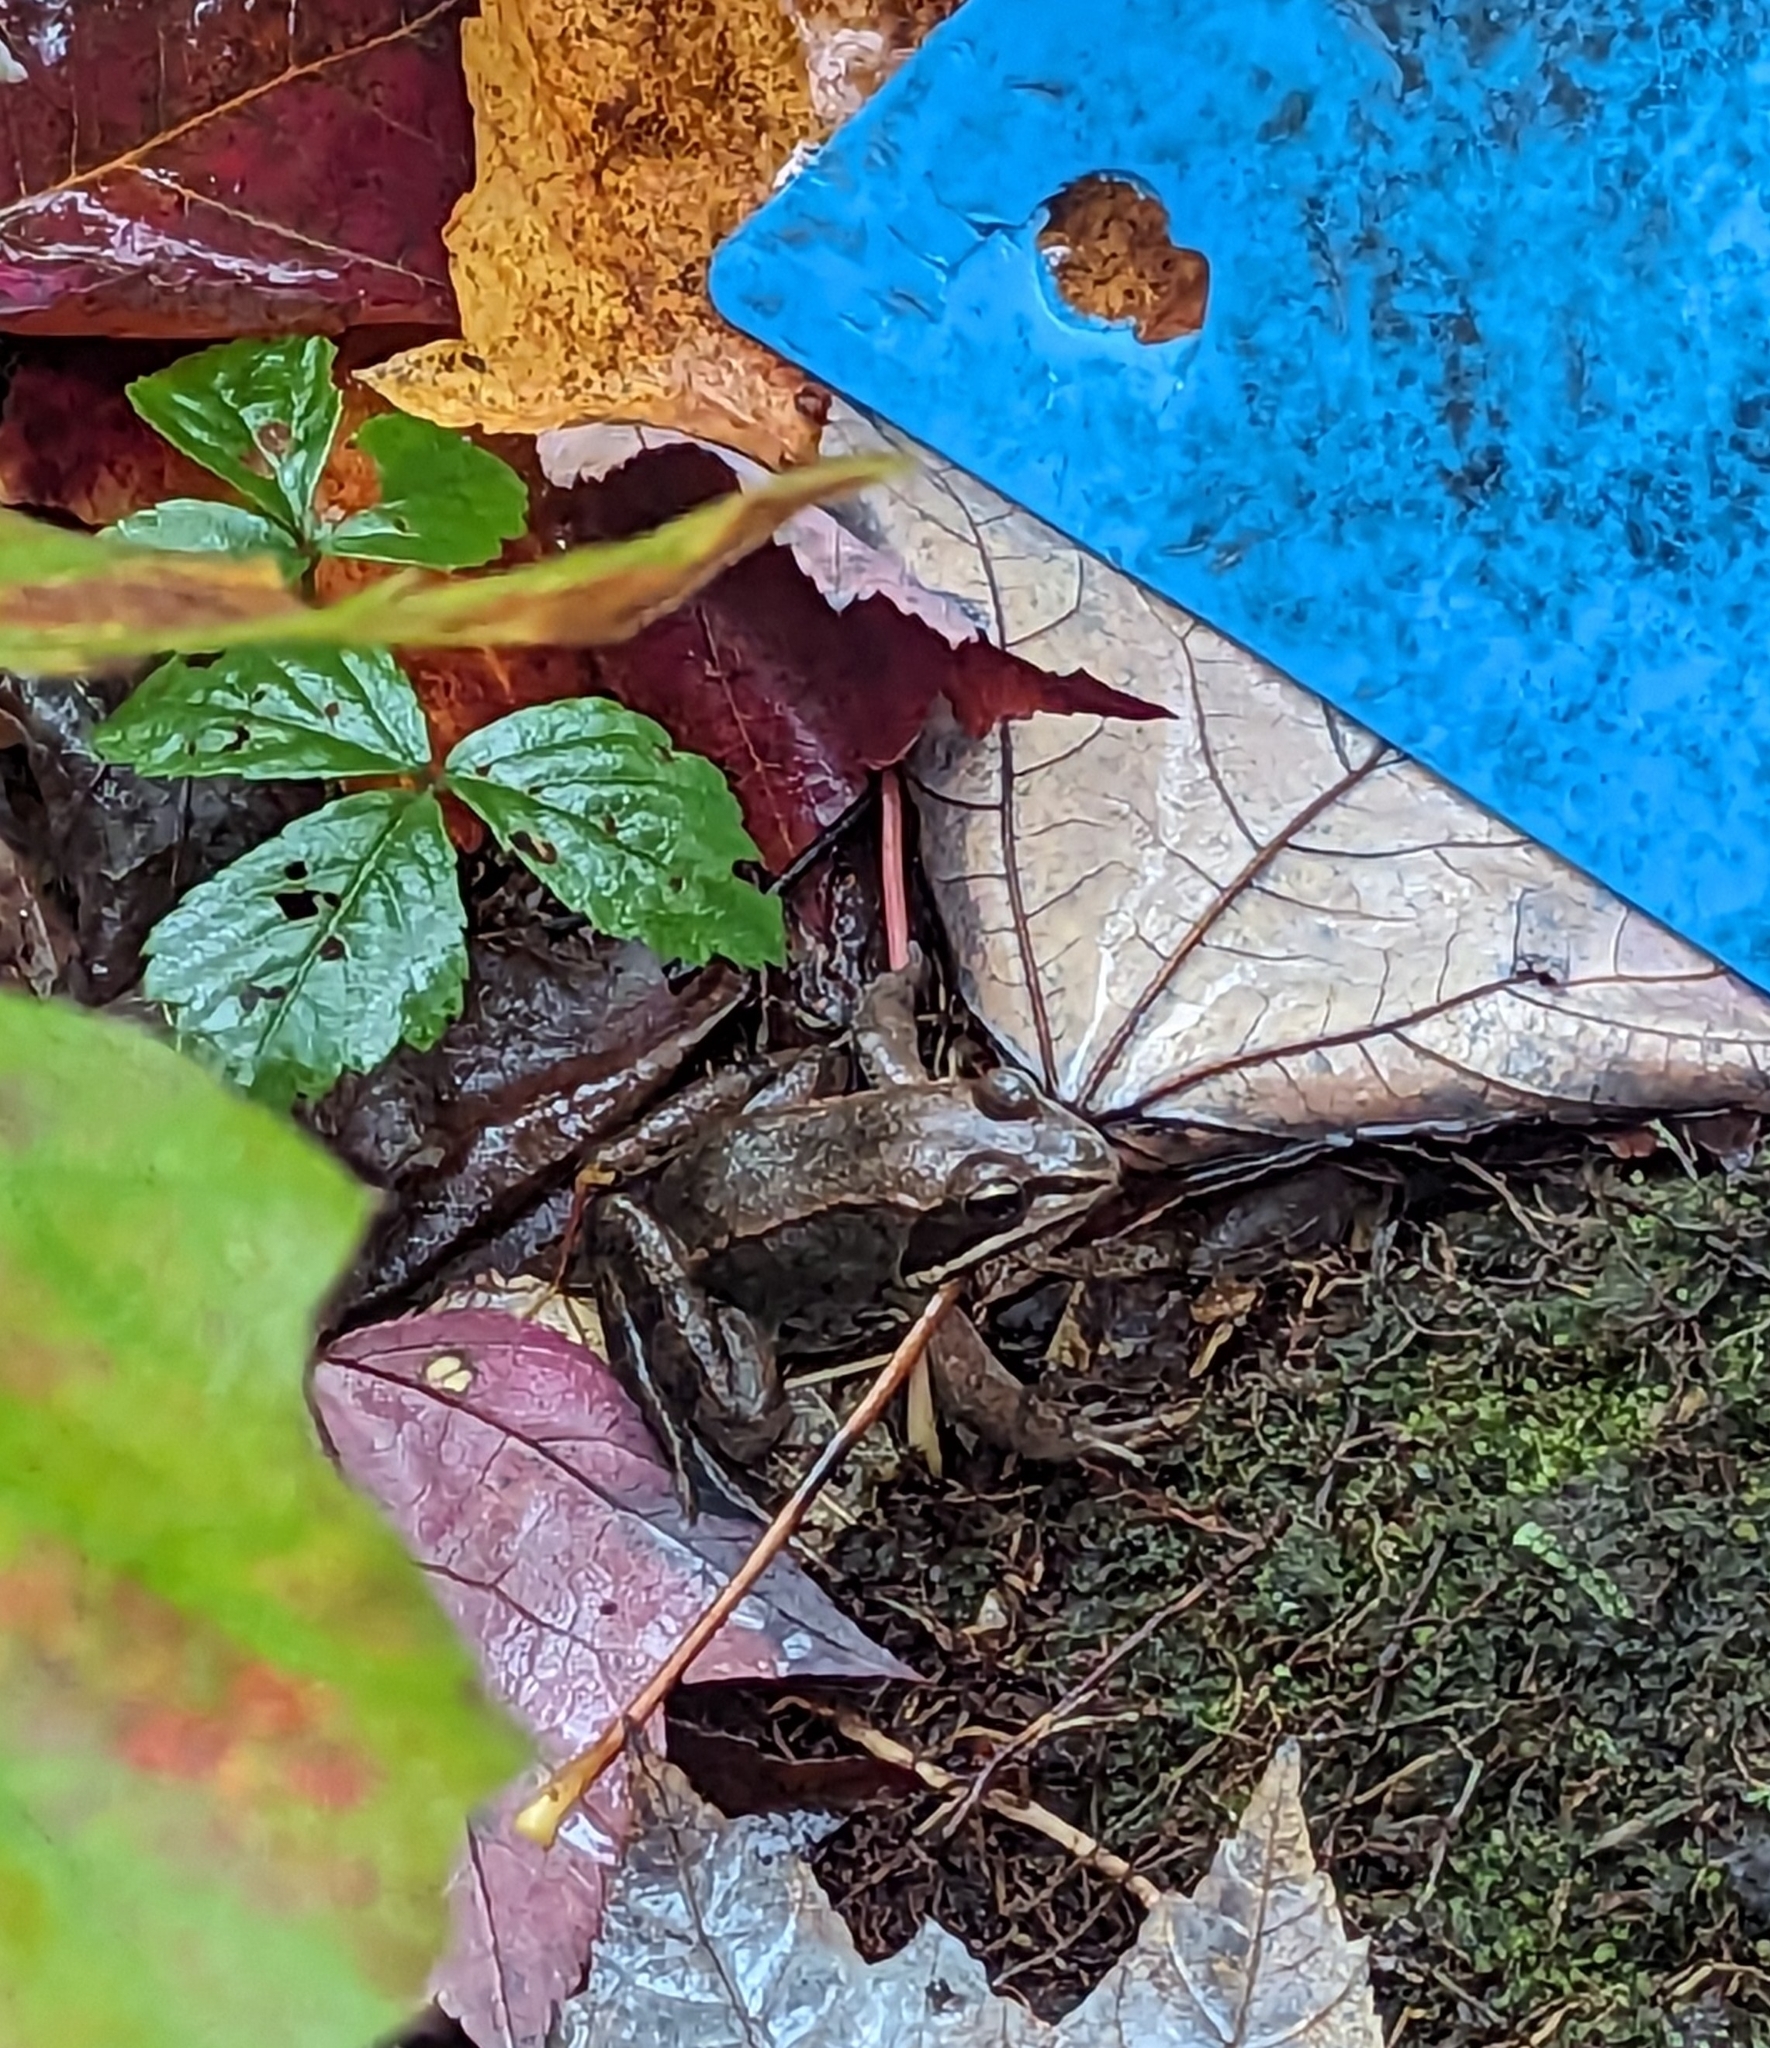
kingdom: Animalia
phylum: Chordata
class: Amphibia
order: Anura
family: Ranidae
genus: Lithobates
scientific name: Lithobates sylvaticus
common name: Wood frog
